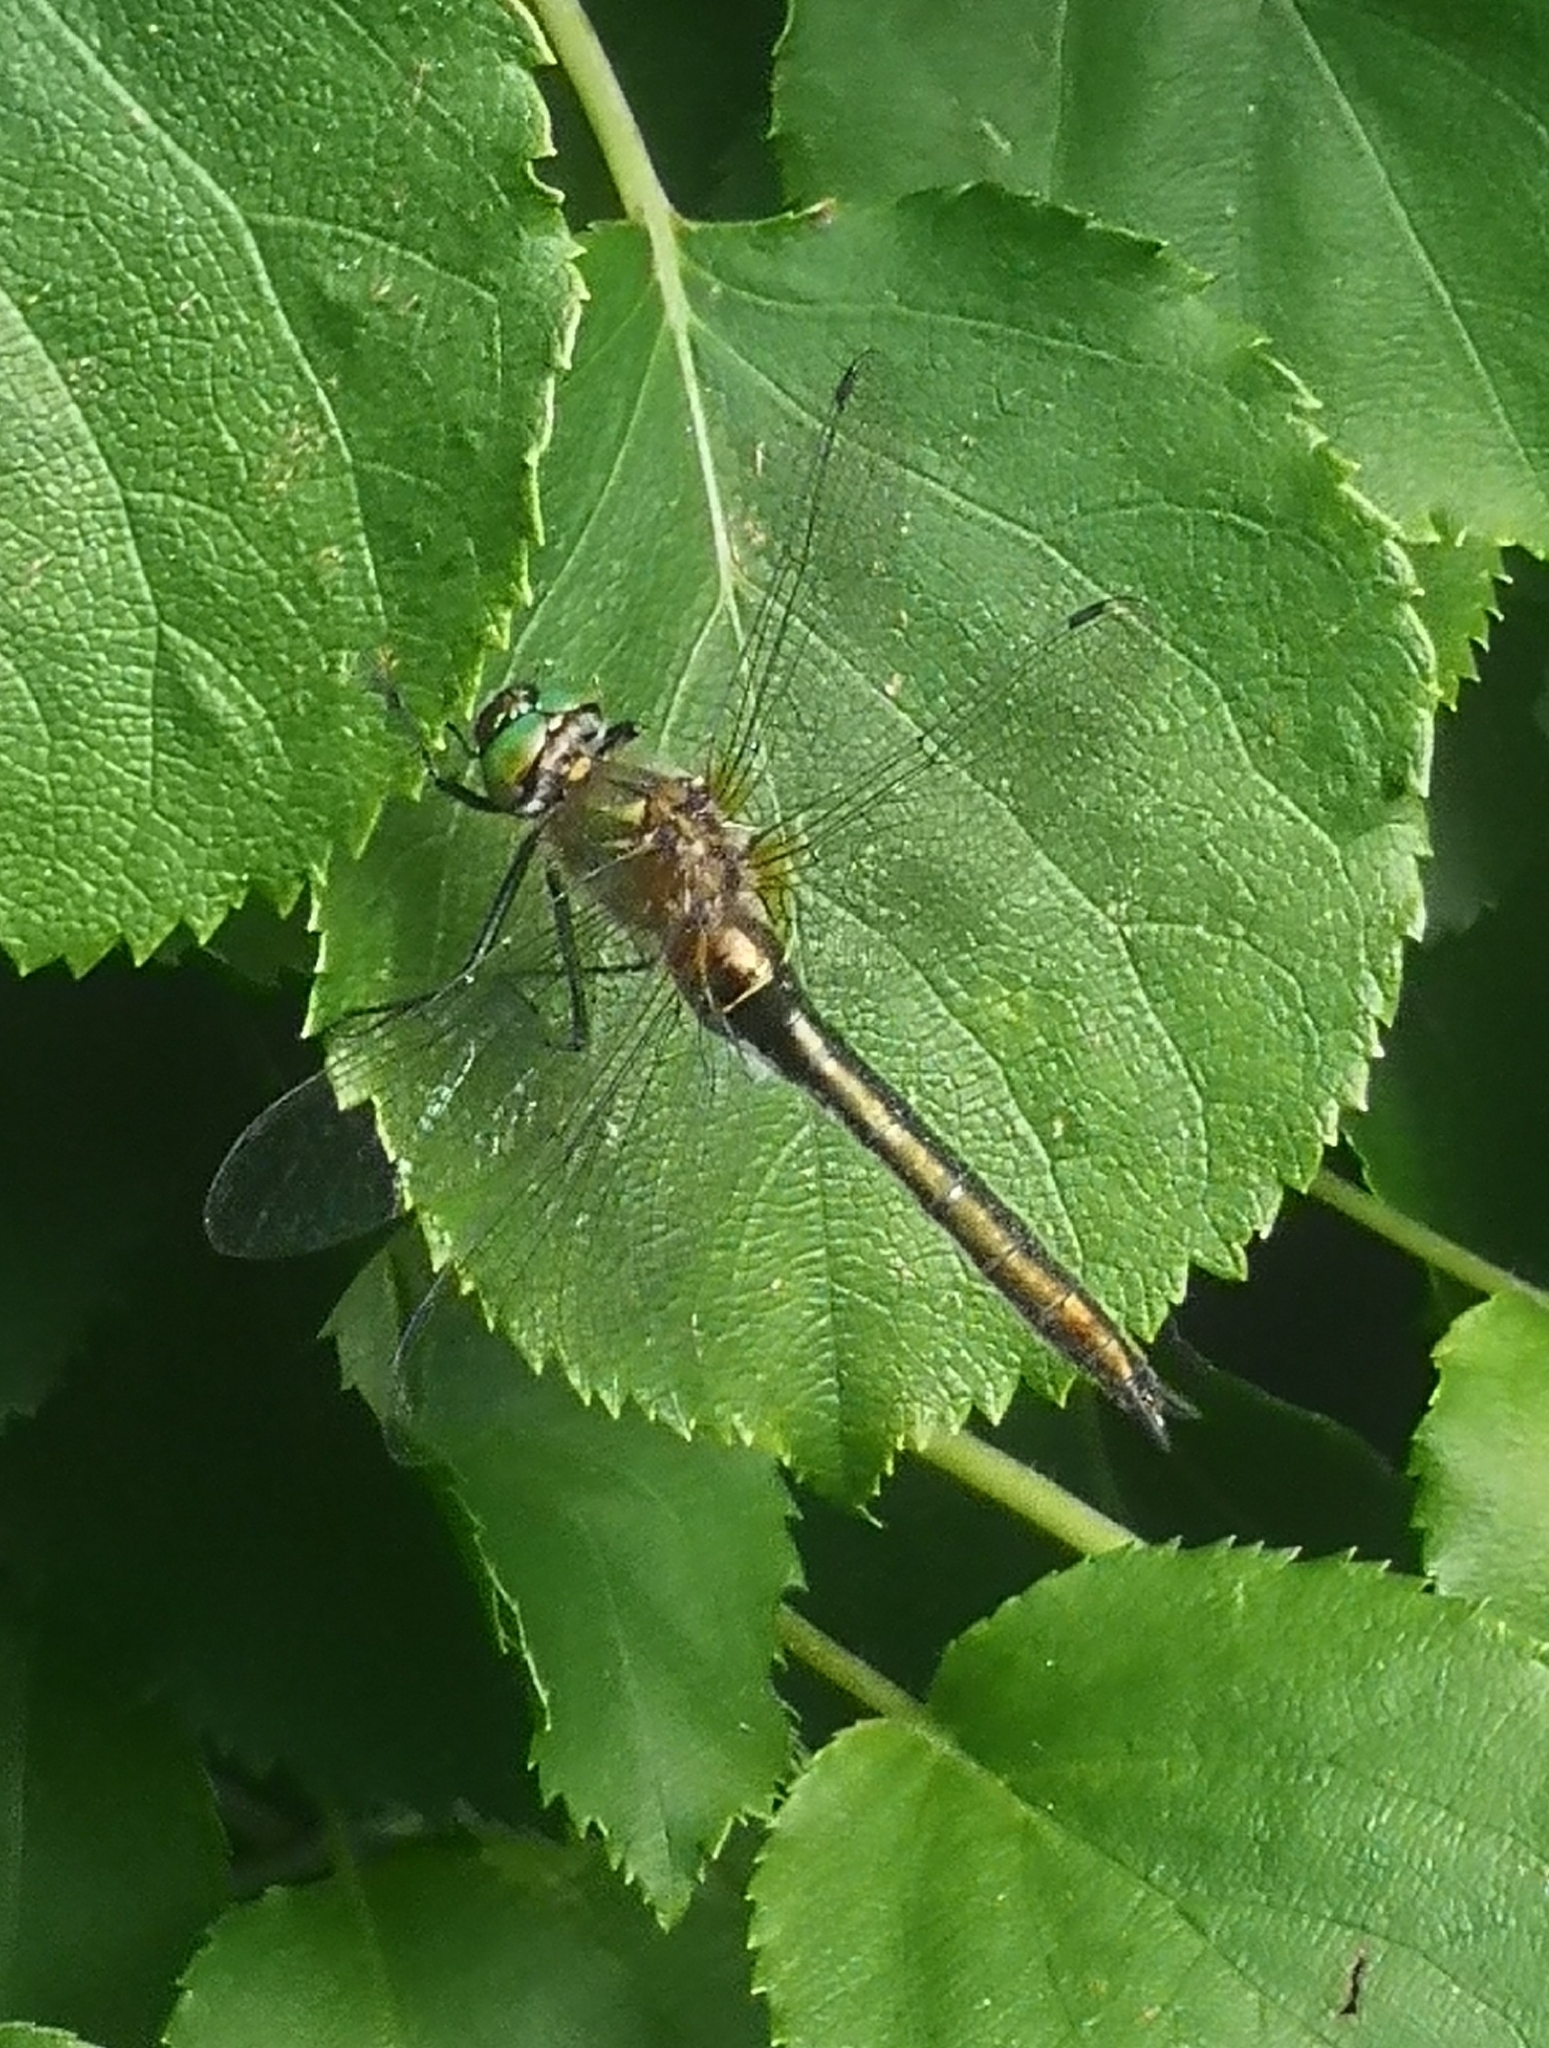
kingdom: Animalia
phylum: Arthropoda
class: Insecta
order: Odonata
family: Corduliidae
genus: Cordulia
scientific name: Cordulia aenea
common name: Downy emerald
